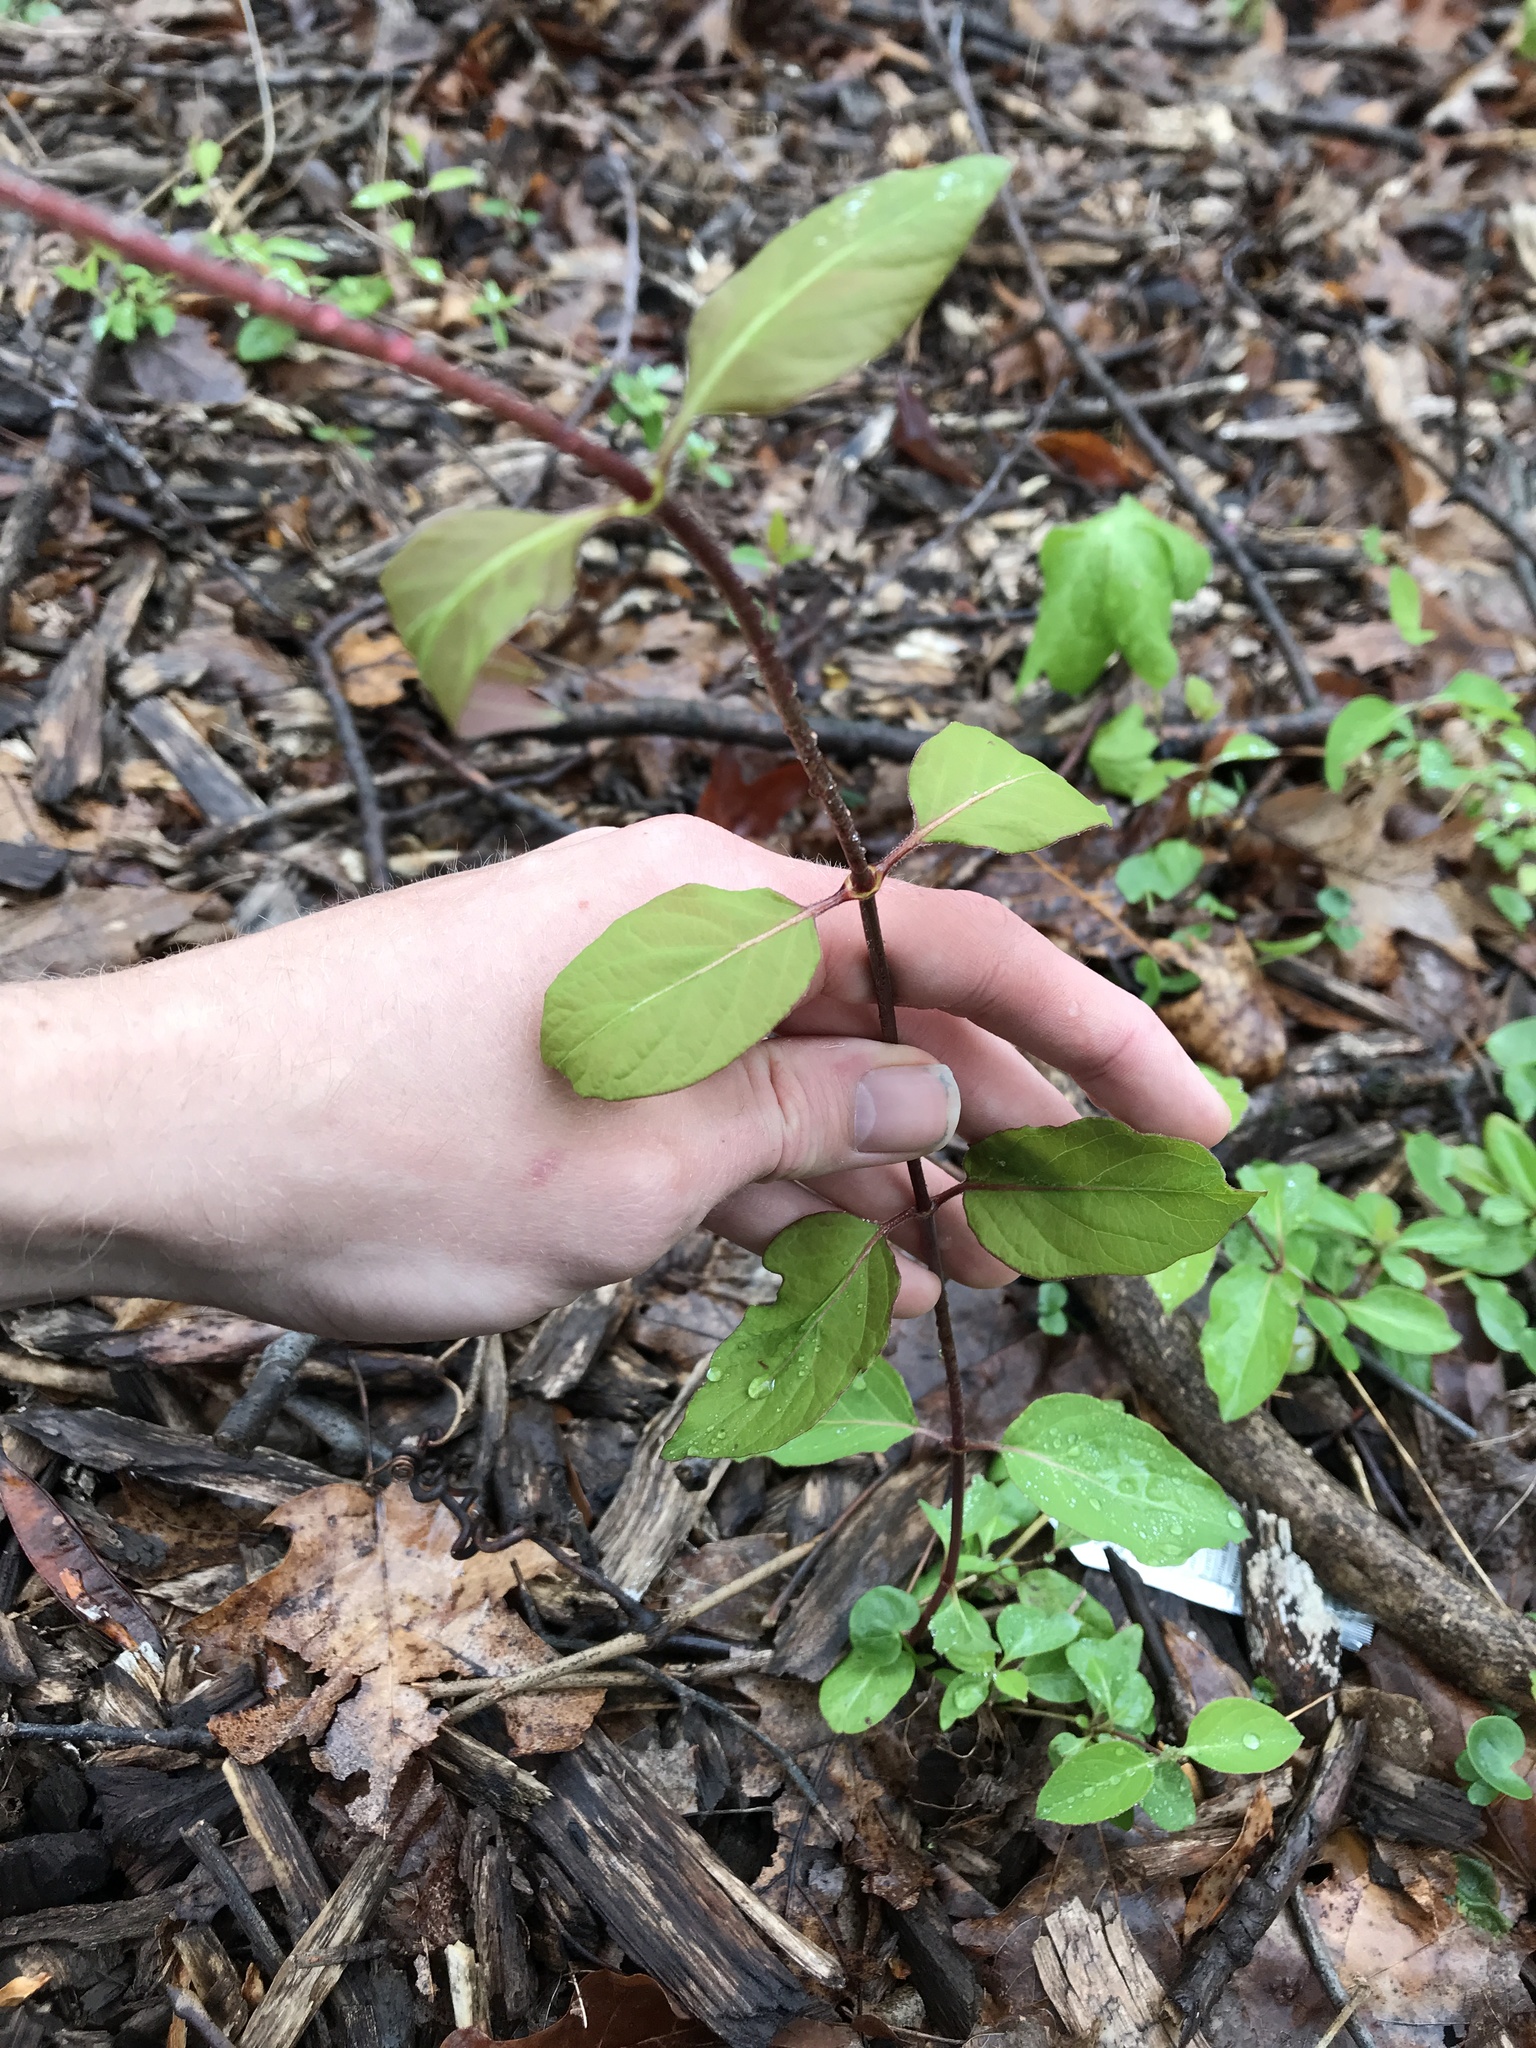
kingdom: Plantae
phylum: Tracheophyta
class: Magnoliopsida
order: Dipsacales
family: Caprifoliaceae
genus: Lonicera
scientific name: Lonicera japonica
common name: Japanese honeysuckle
